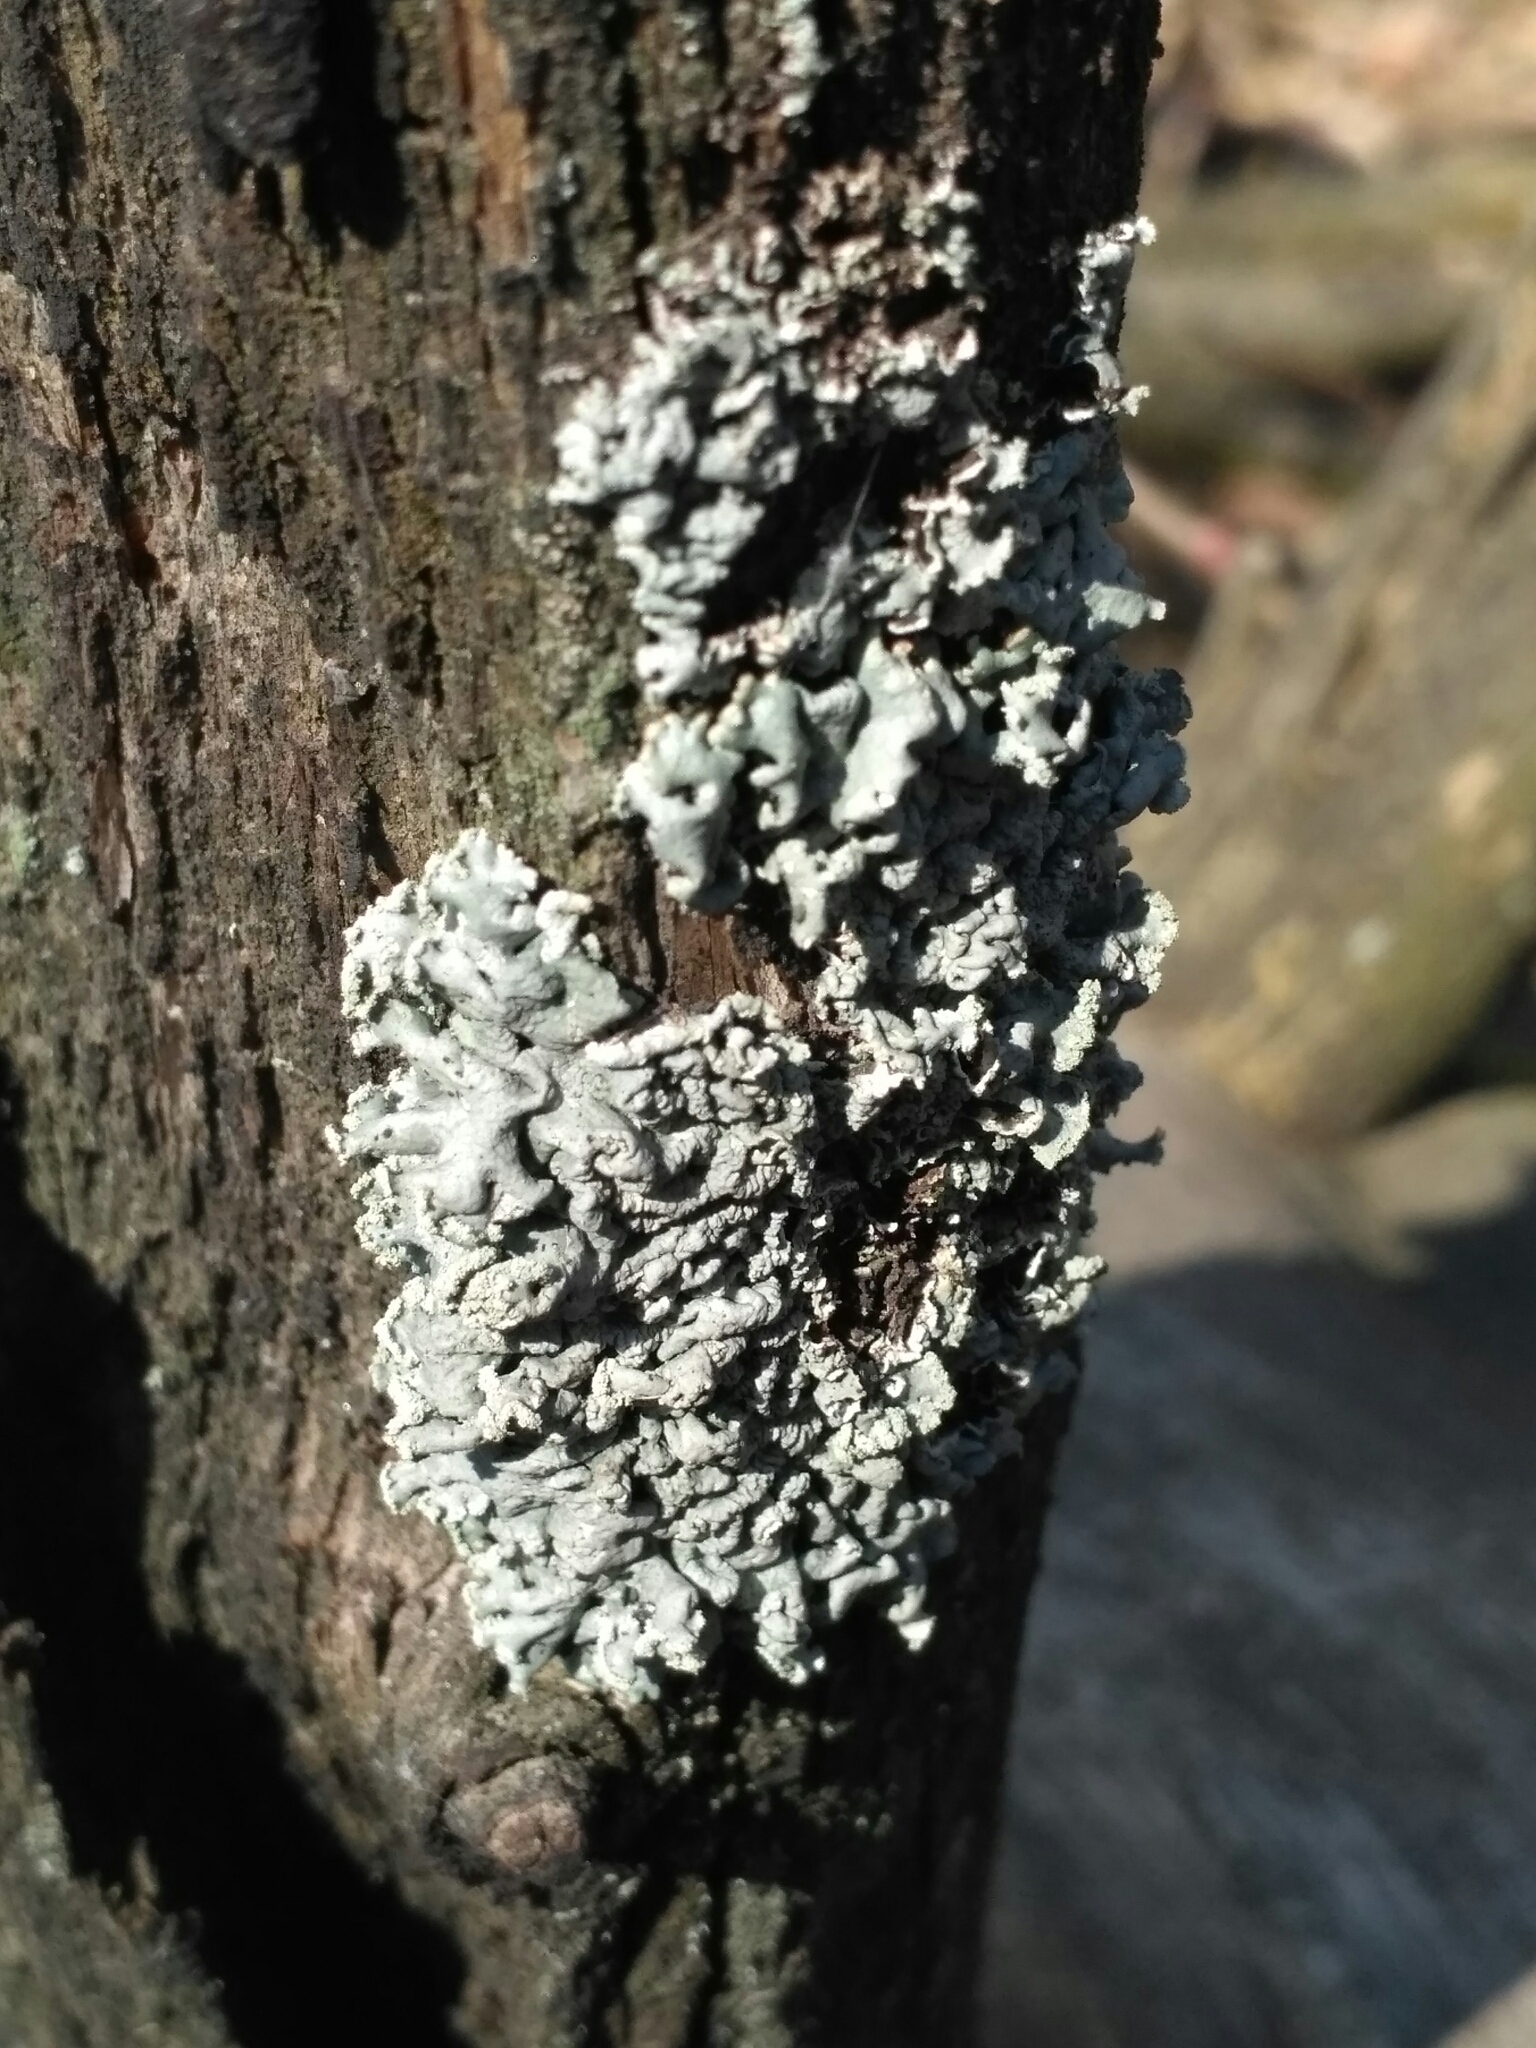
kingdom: Fungi
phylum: Ascomycota
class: Lecanoromycetes
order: Lecanorales
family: Parmeliaceae
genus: Hypogymnia
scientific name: Hypogymnia physodes
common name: Dark crottle
